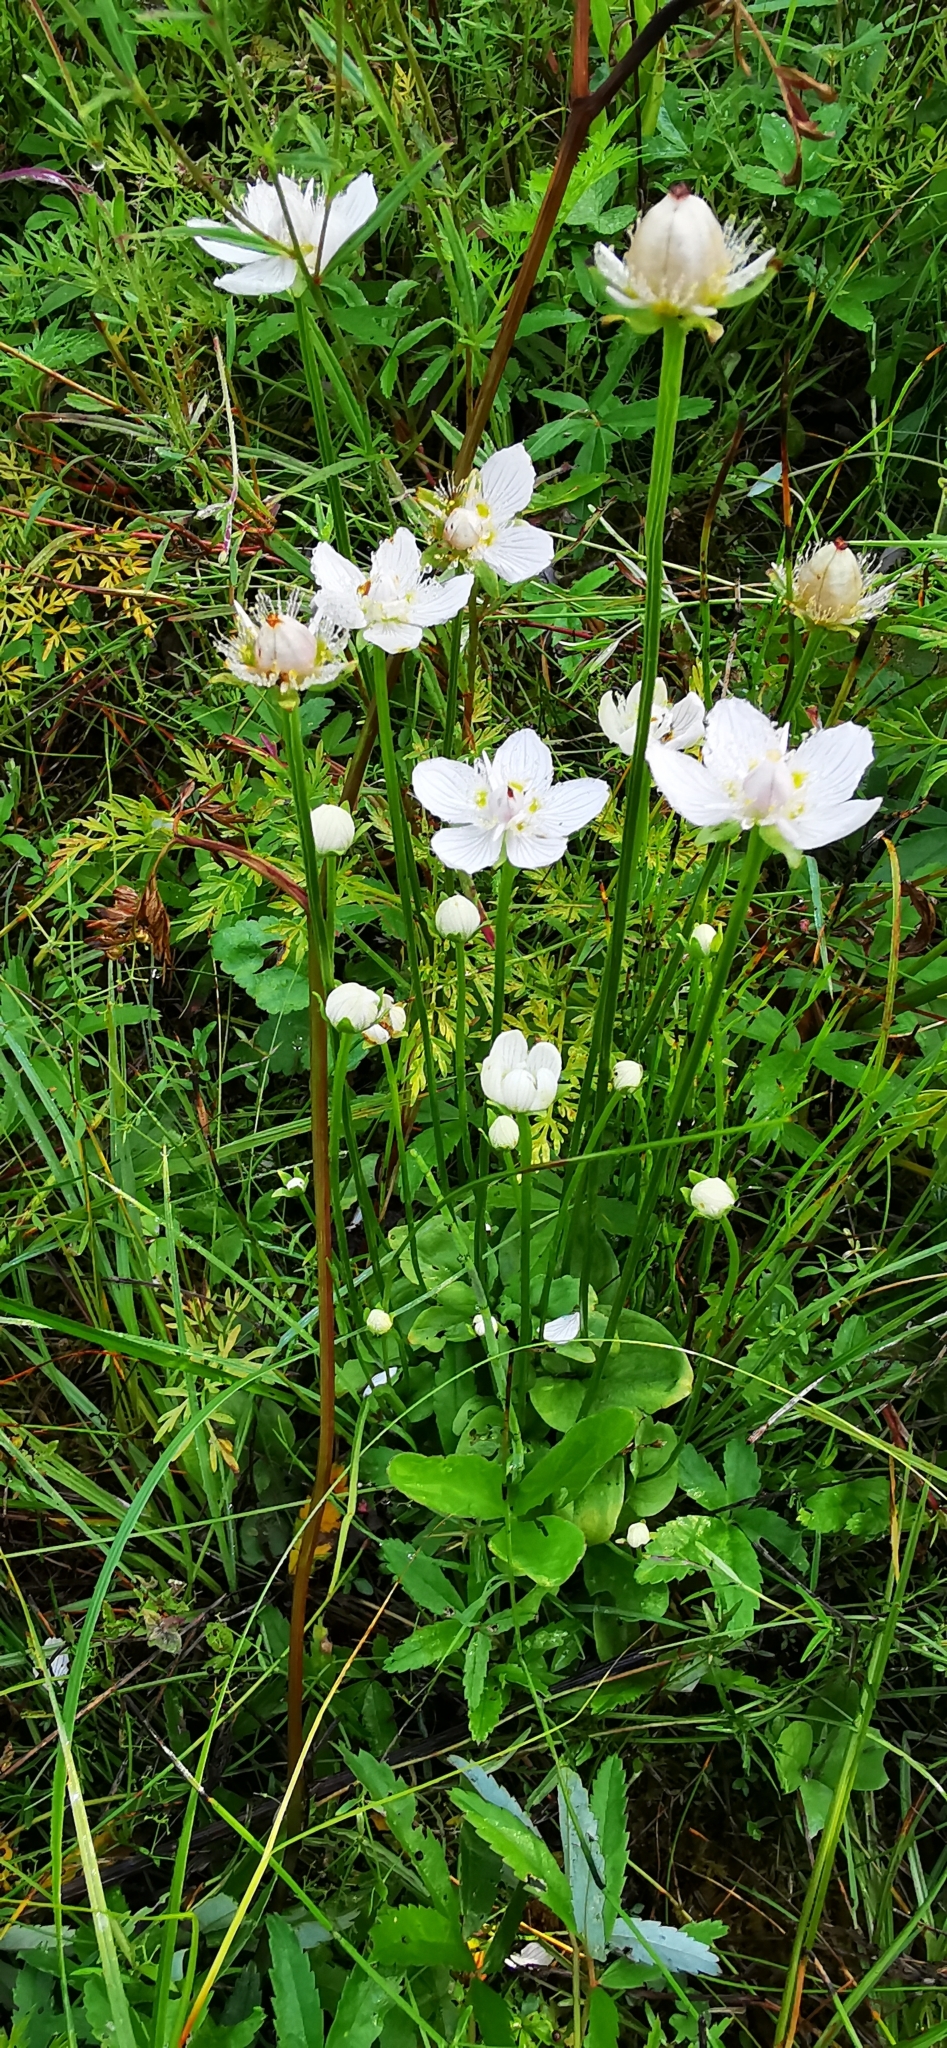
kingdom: Plantae
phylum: Tracheophyta
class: Magnoliopsida
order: Celastrales
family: Parnassiaceae
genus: Parnassia
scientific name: Parnassia palustris
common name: Grass-of-parnassus
